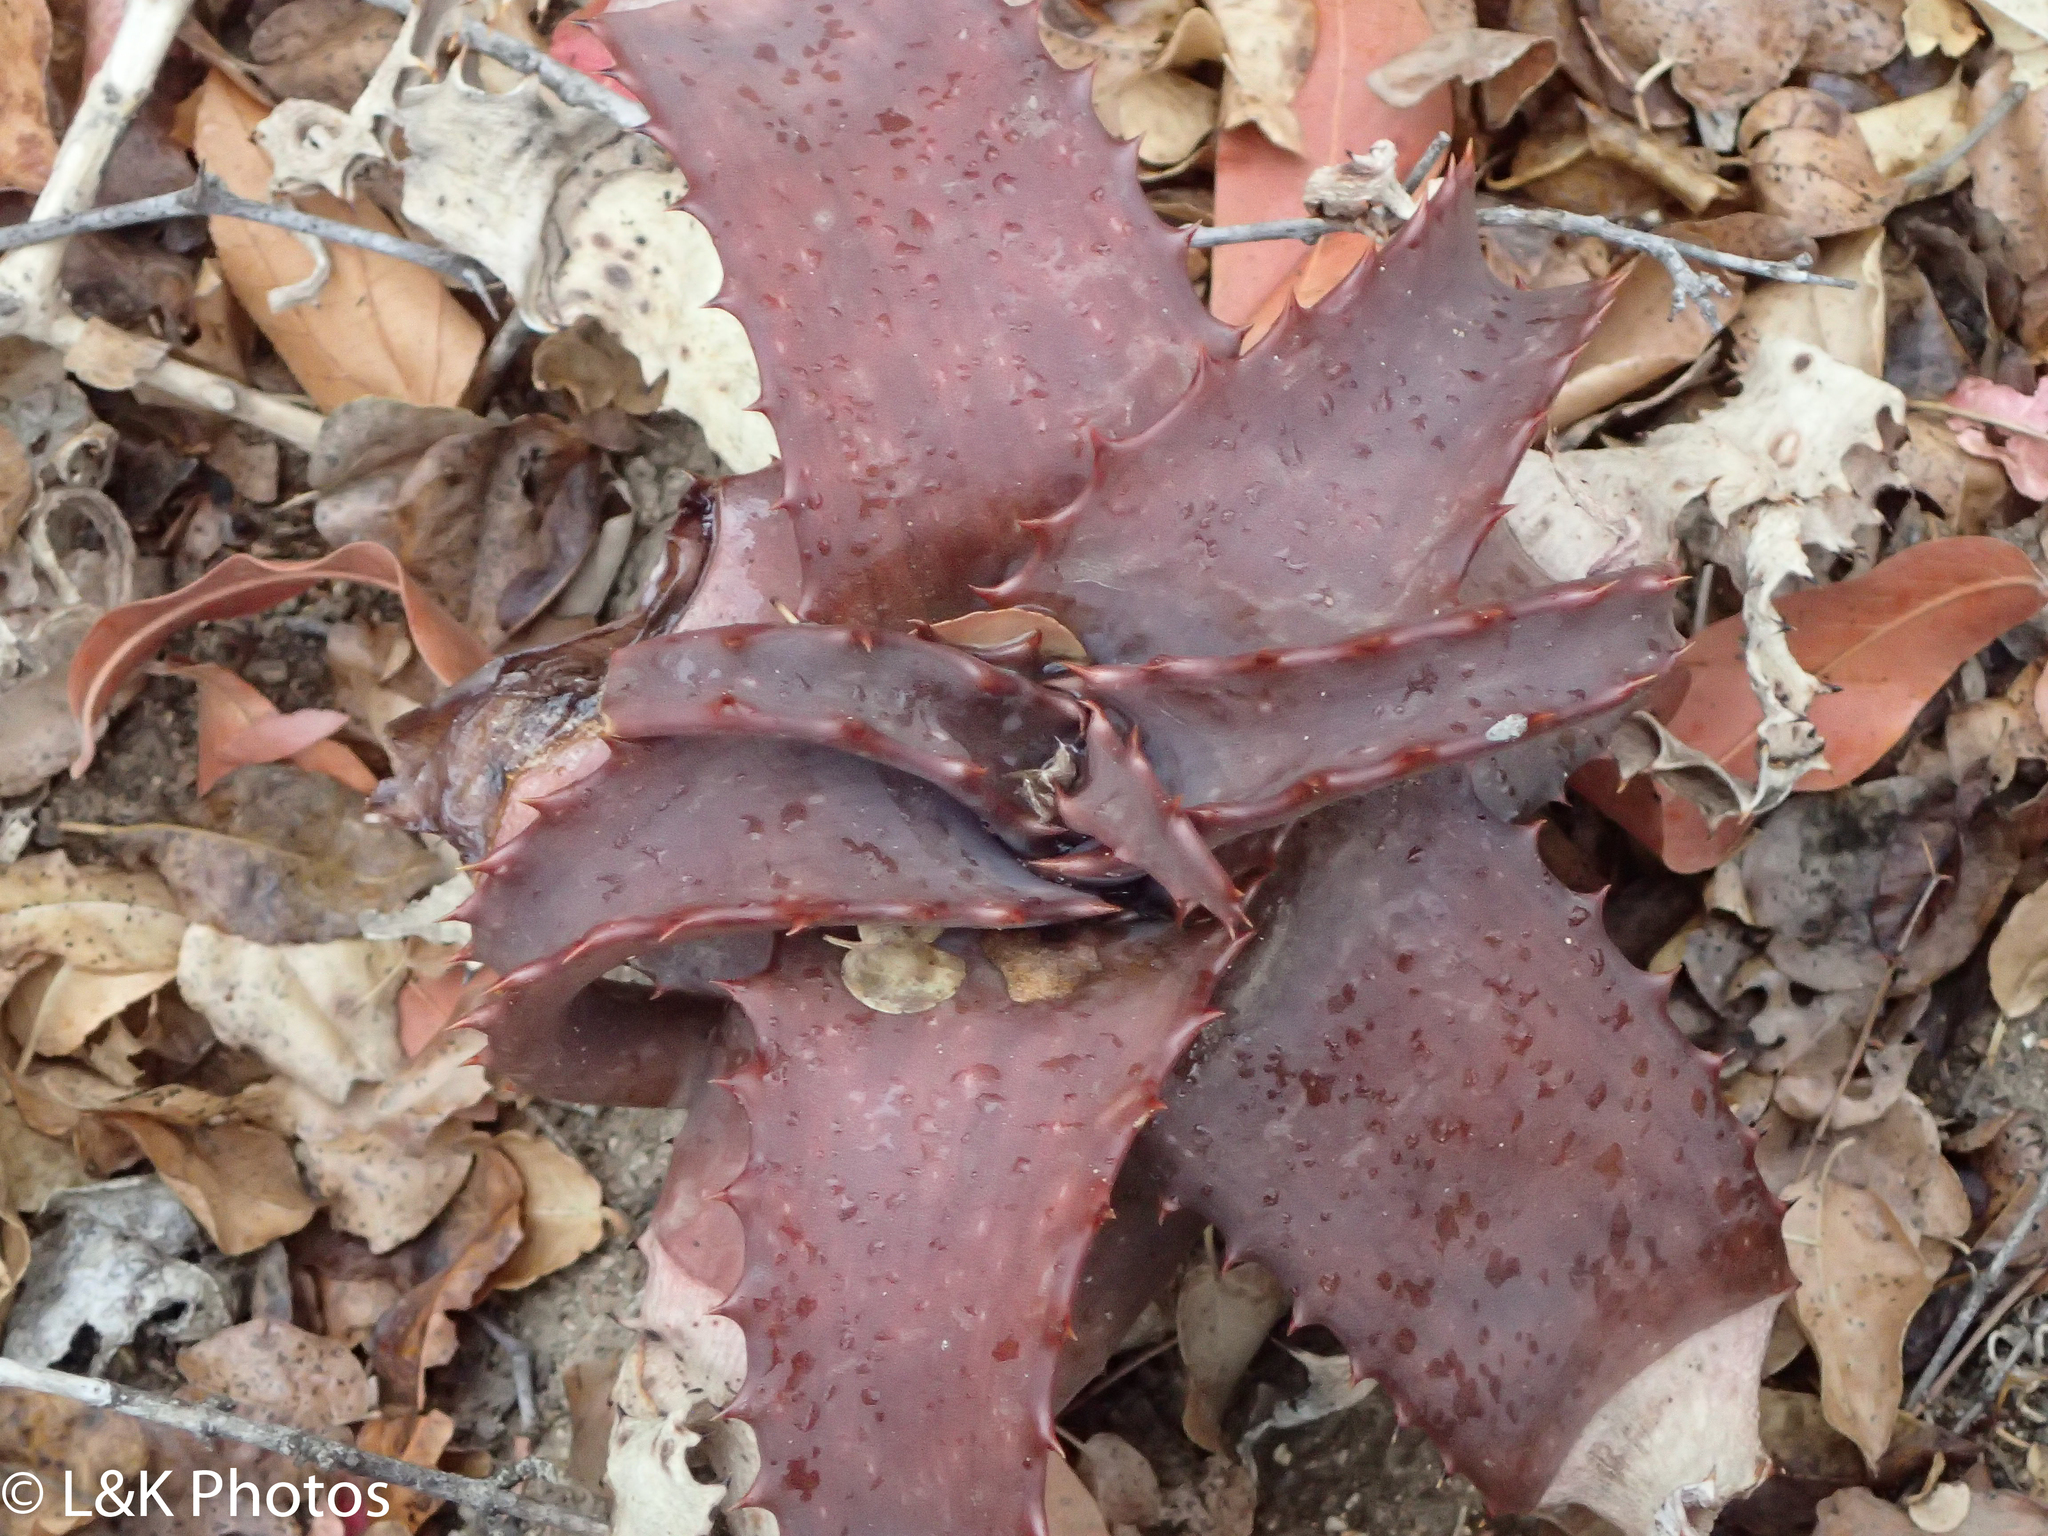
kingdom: Plantae
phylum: Tracheophyta
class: Liliopsida
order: Asparagales
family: Asphodelaceae
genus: Aloe
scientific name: Aloe parvibracteata
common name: Lowveld spotted aloe
